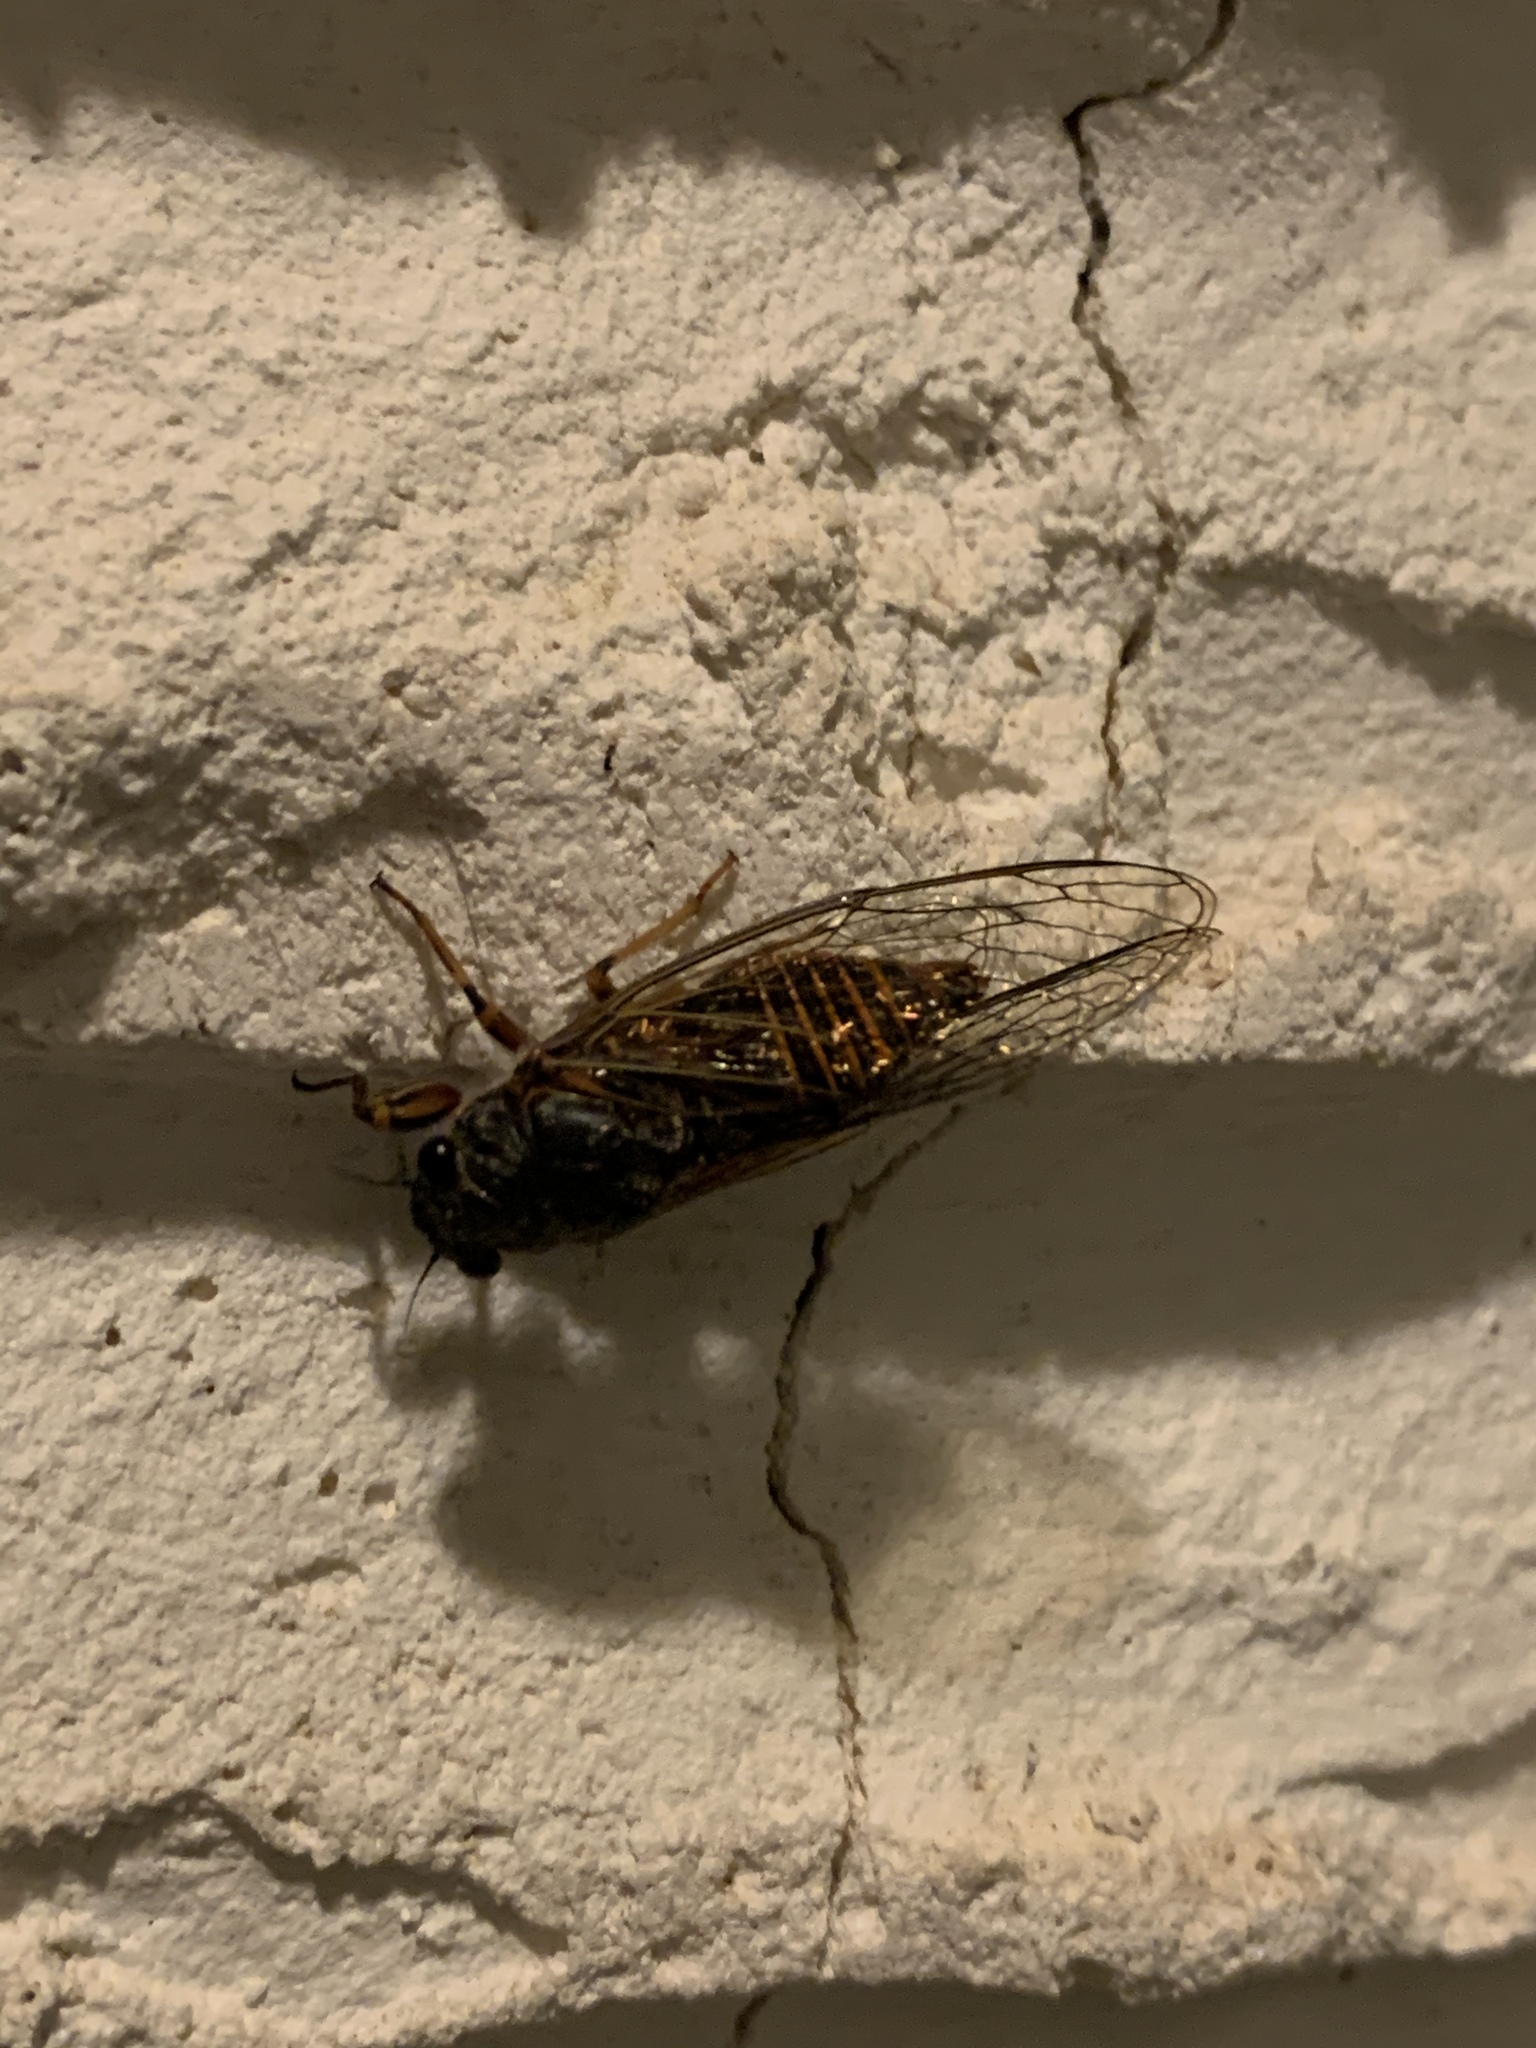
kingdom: Animalia
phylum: Arthropoda
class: Insecta
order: Hemiptera
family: Cicadidae
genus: Euboeana
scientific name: Euboeana castaneivaga
